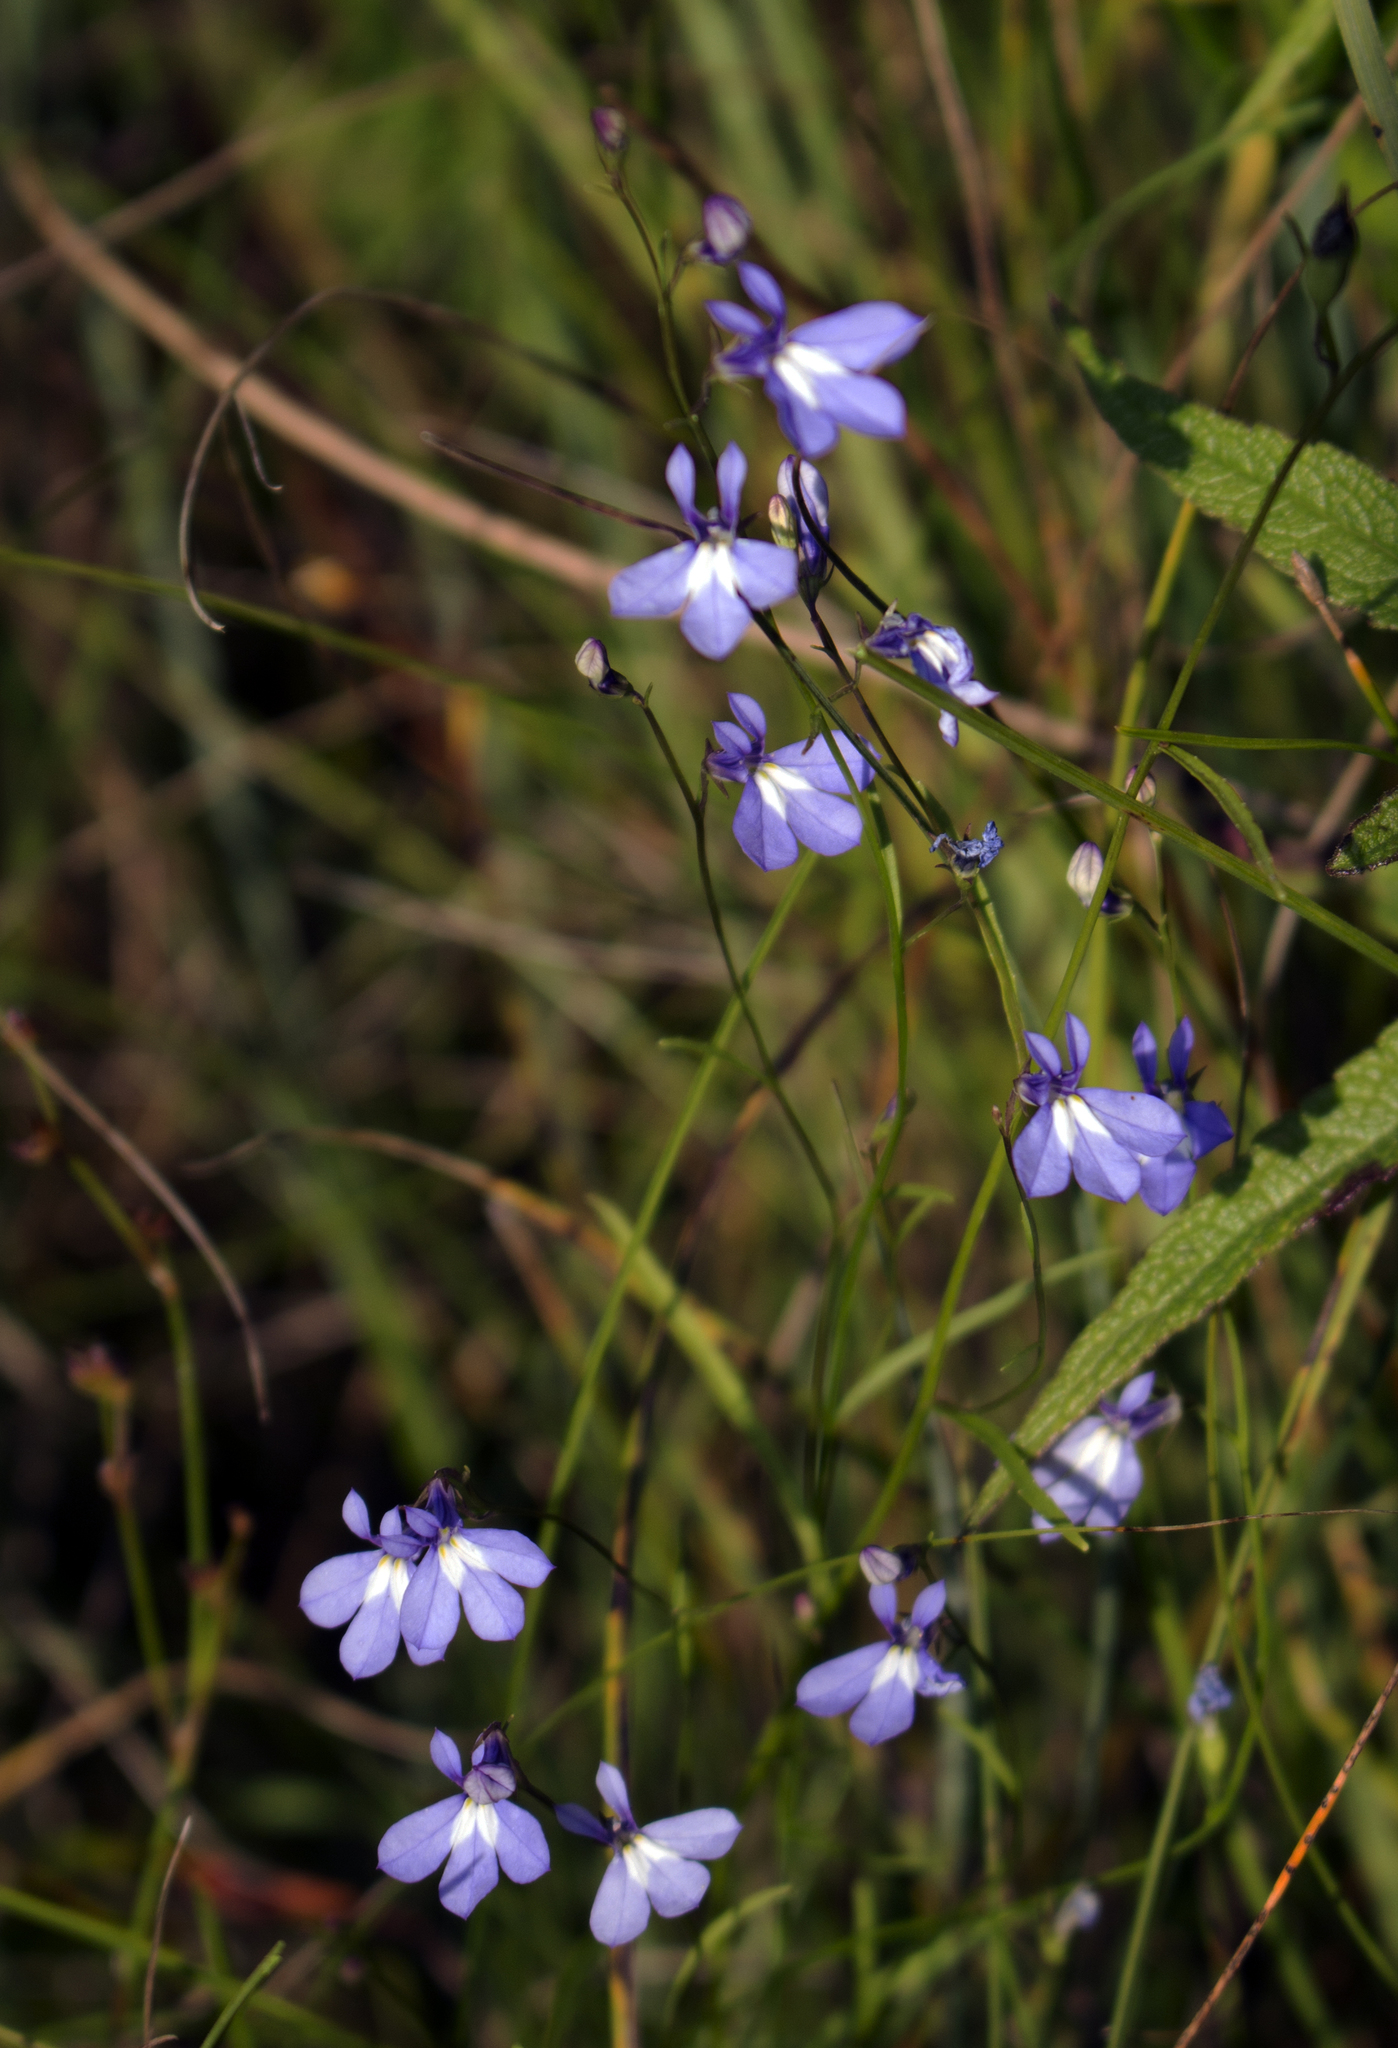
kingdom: Plantae
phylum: Tracheophyta
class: Magnoliopsida
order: Asterales
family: Campanulaceae
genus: Lobelia
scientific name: Lobelia kalmii
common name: Kalm's lobelia
